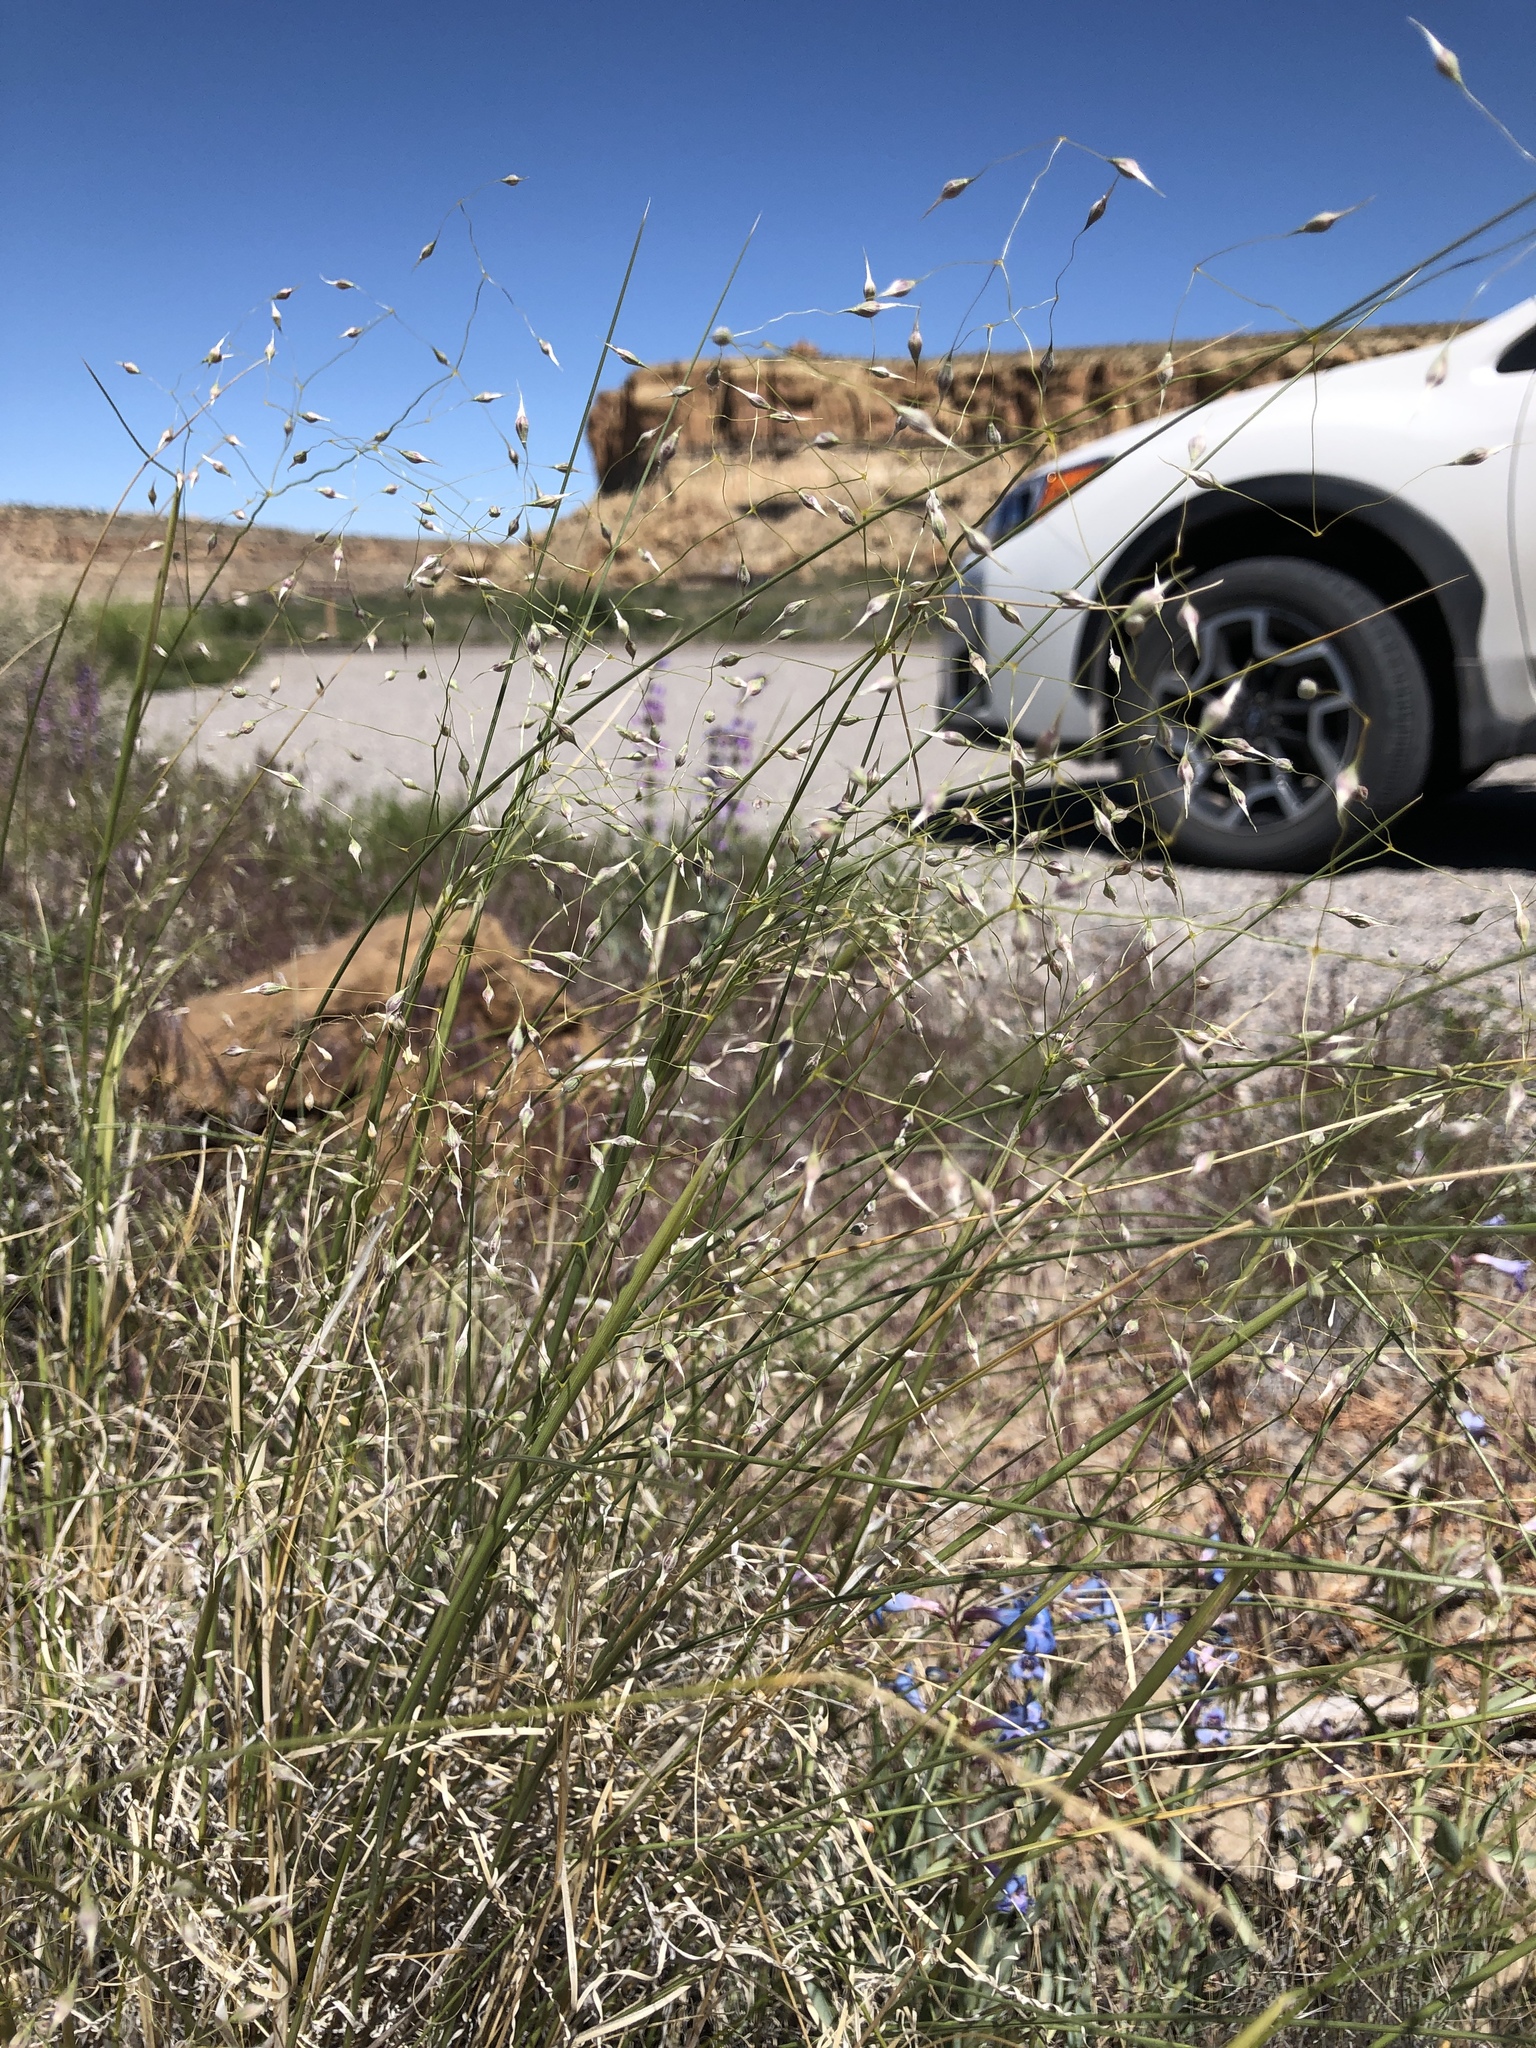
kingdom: Plantae
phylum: Tracheophyta
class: Liliopsida
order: Poales
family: Poaceae
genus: Eriocoma
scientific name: Eriocoma hymenoides
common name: Indian mountain ricegrass
